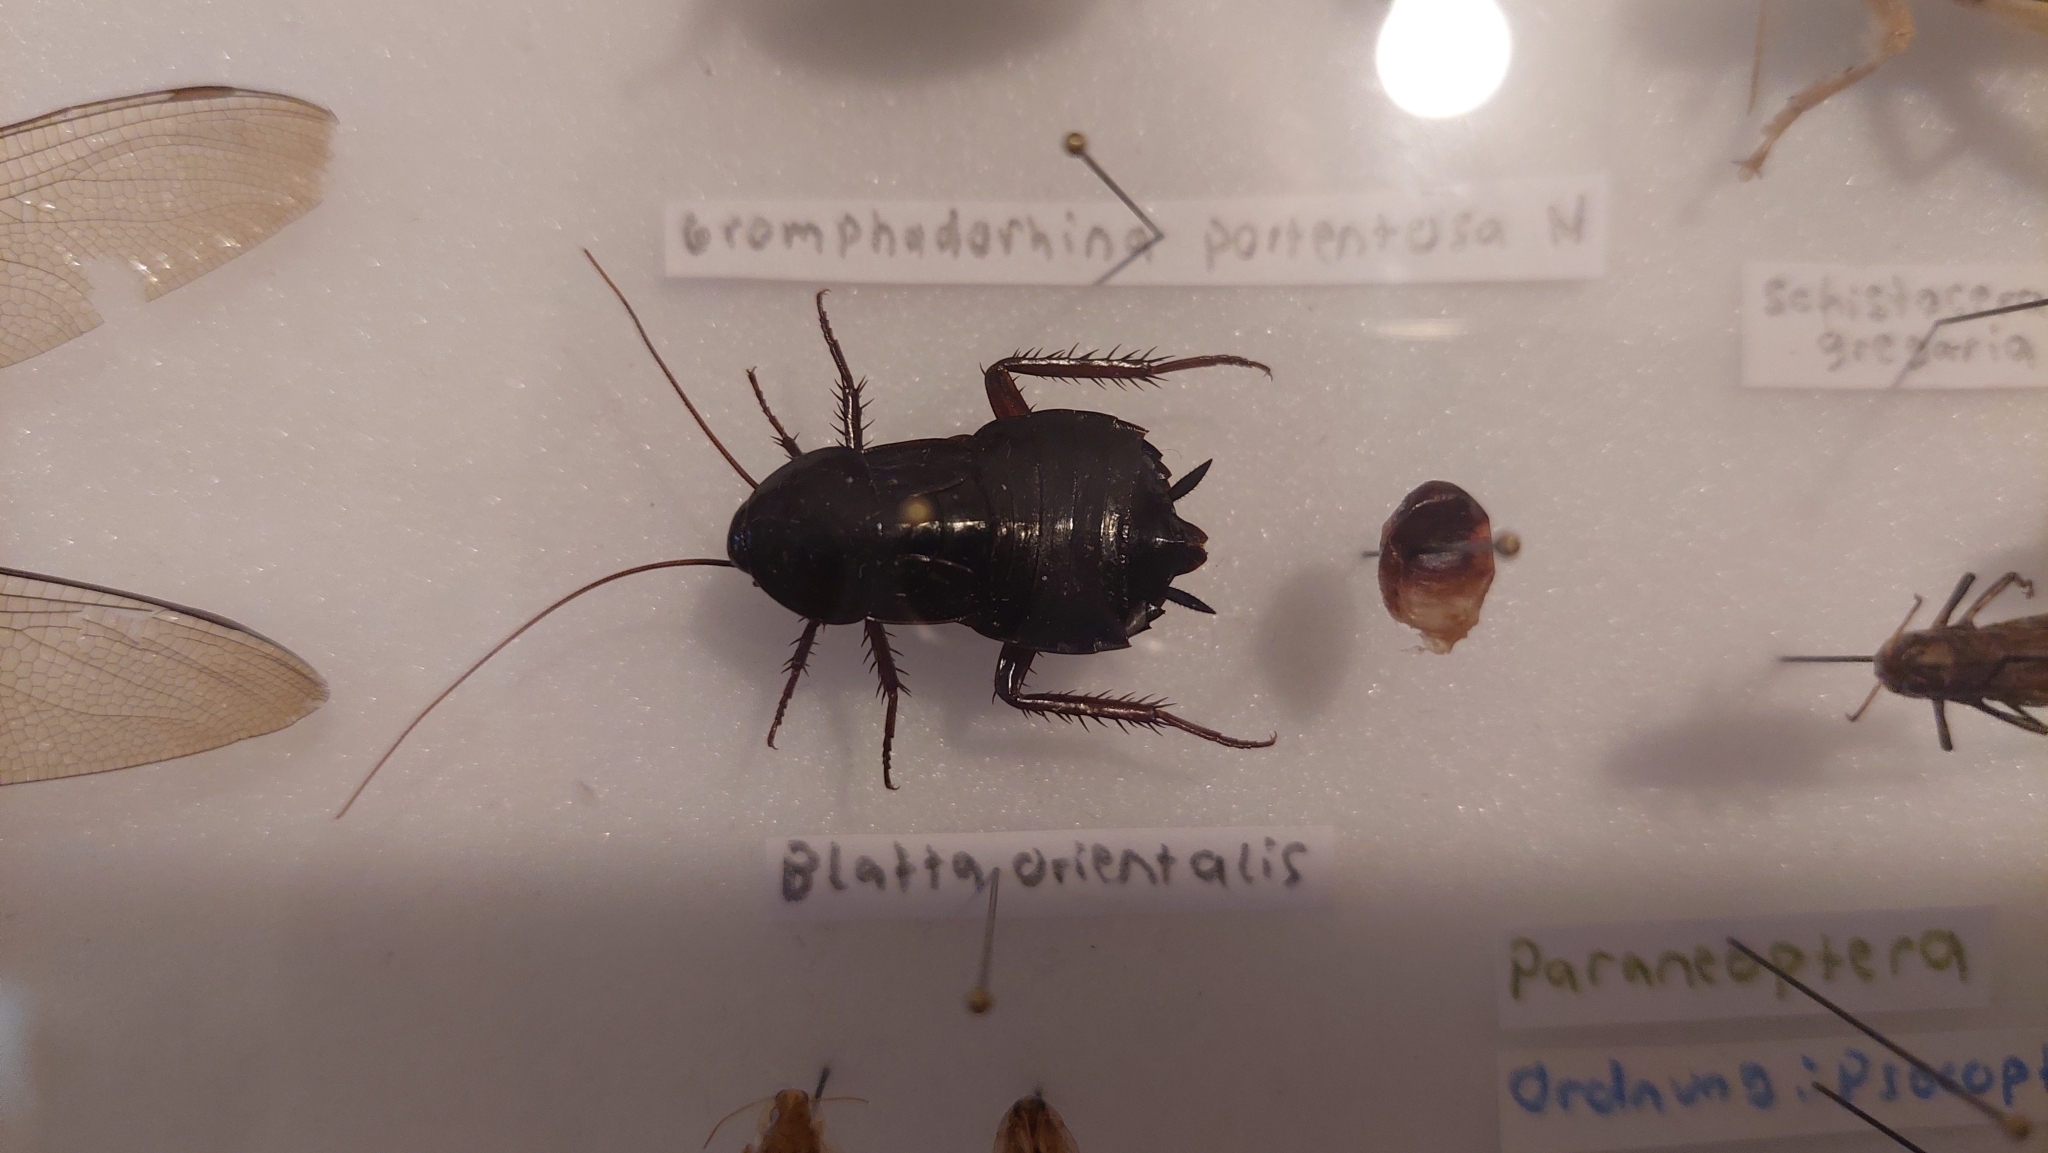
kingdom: Animalia
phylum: Arthropoda
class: Insecta
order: Blattodea
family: Blattidae
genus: Blatta
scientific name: Blatta orientalis
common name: Oriental cockroach
